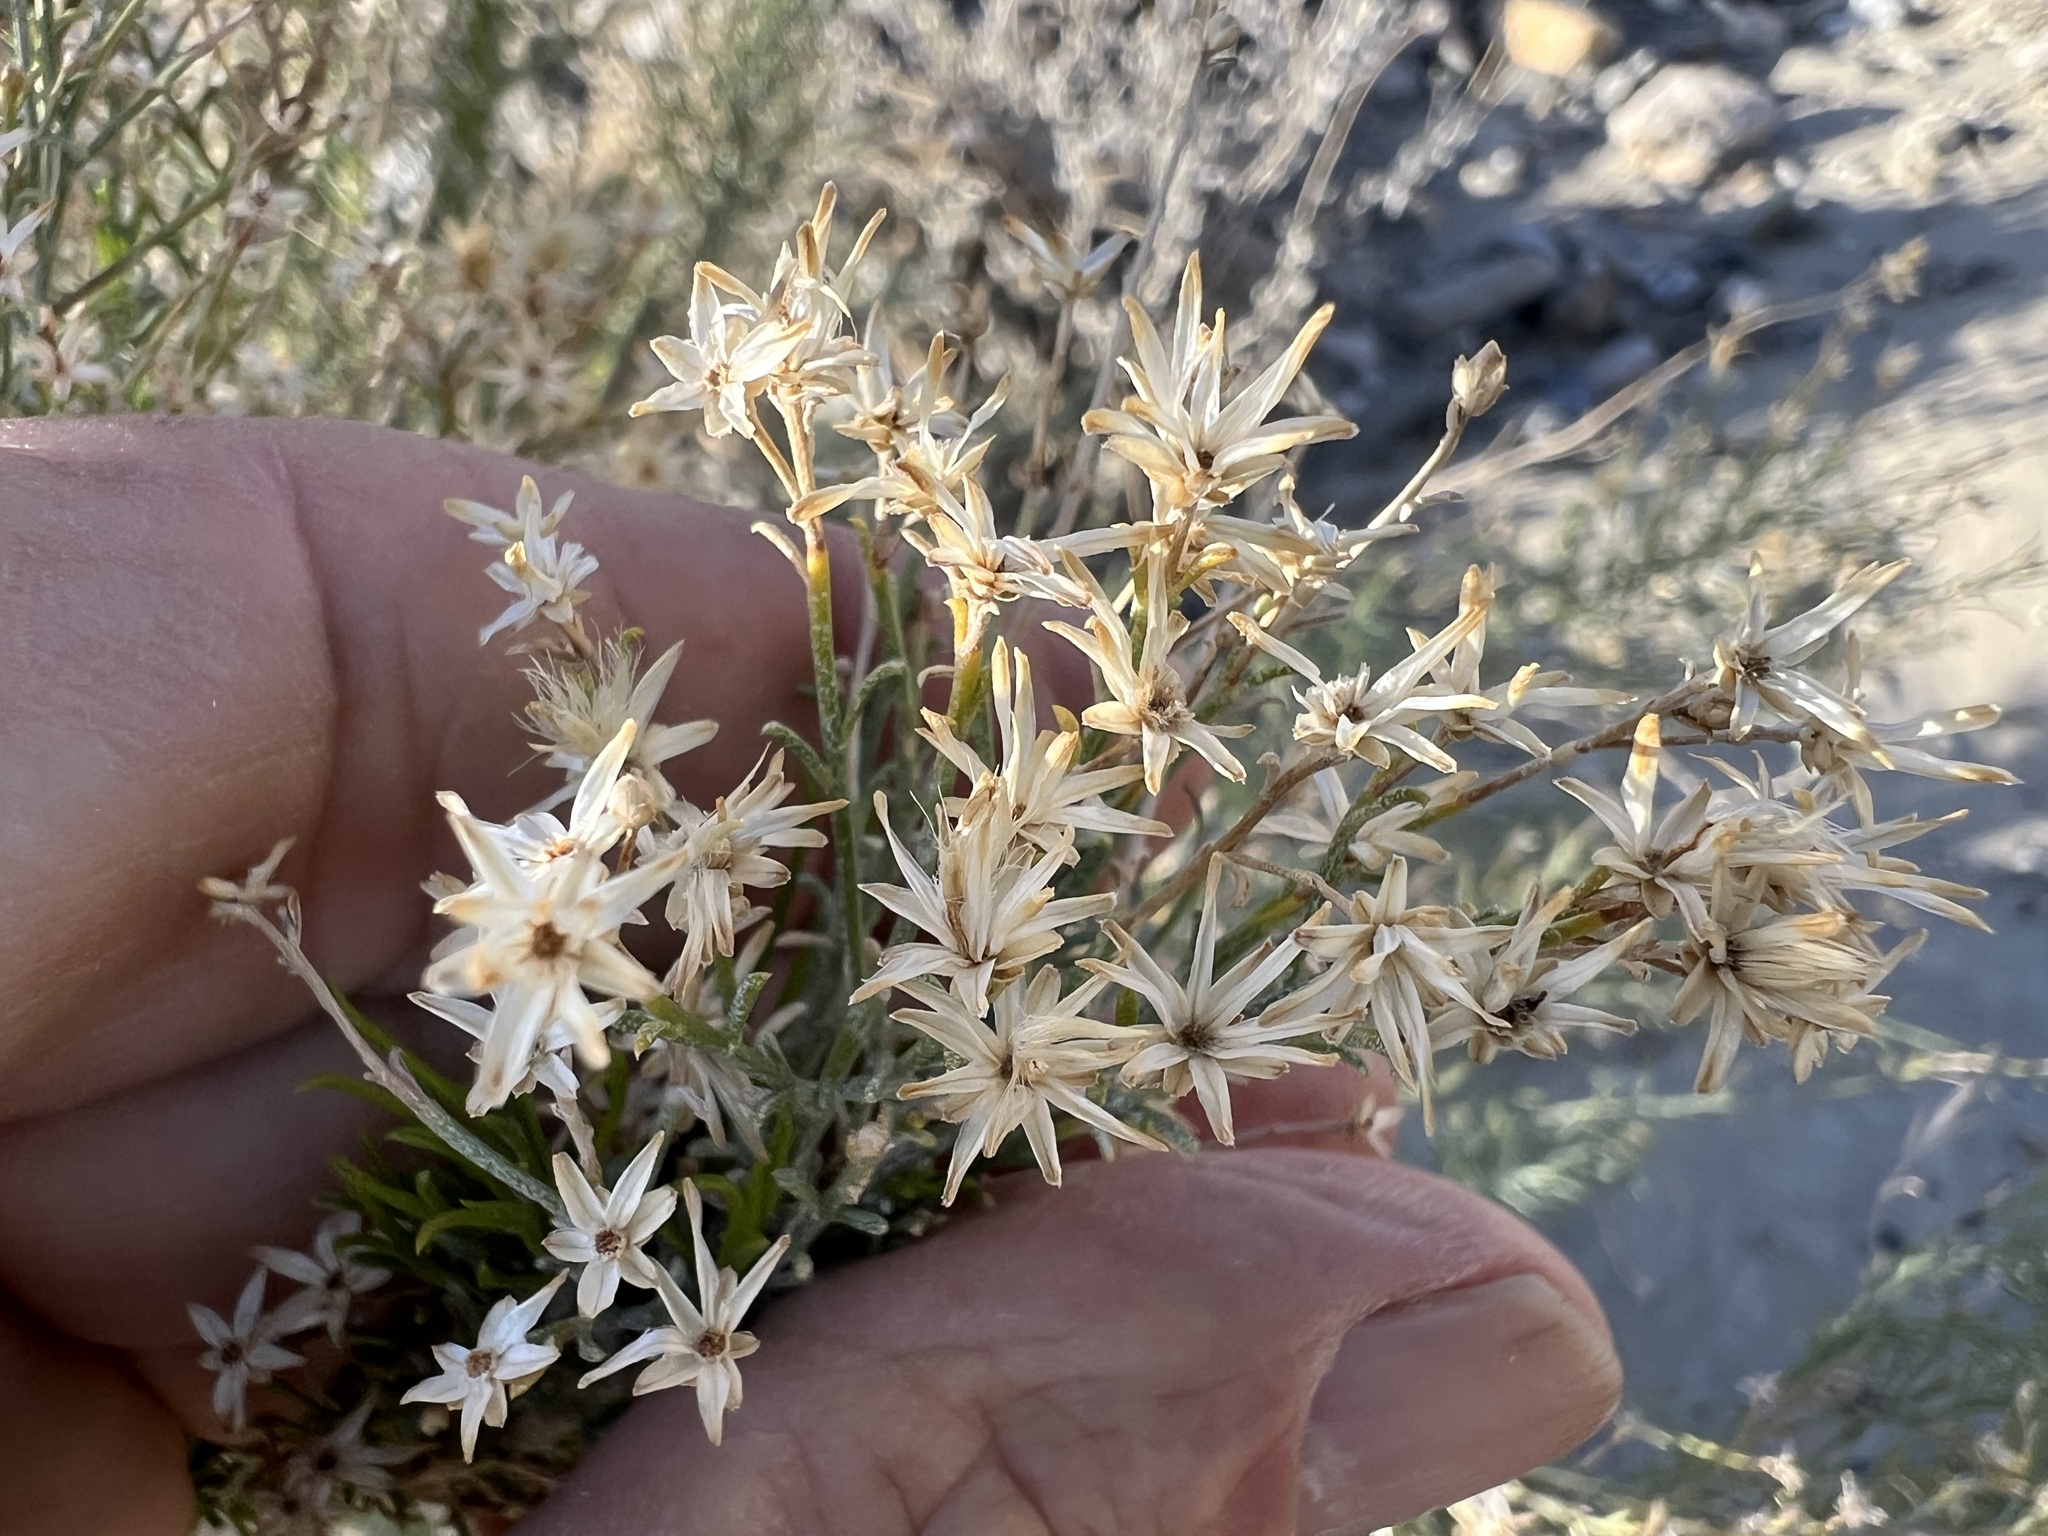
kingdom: Plantae
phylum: Tracheophyta
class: Magnoliopsida
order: Asterales
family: Asteraceae
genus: Ericameria
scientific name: Ericameria paniculata
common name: Punctate rabbitbrush
